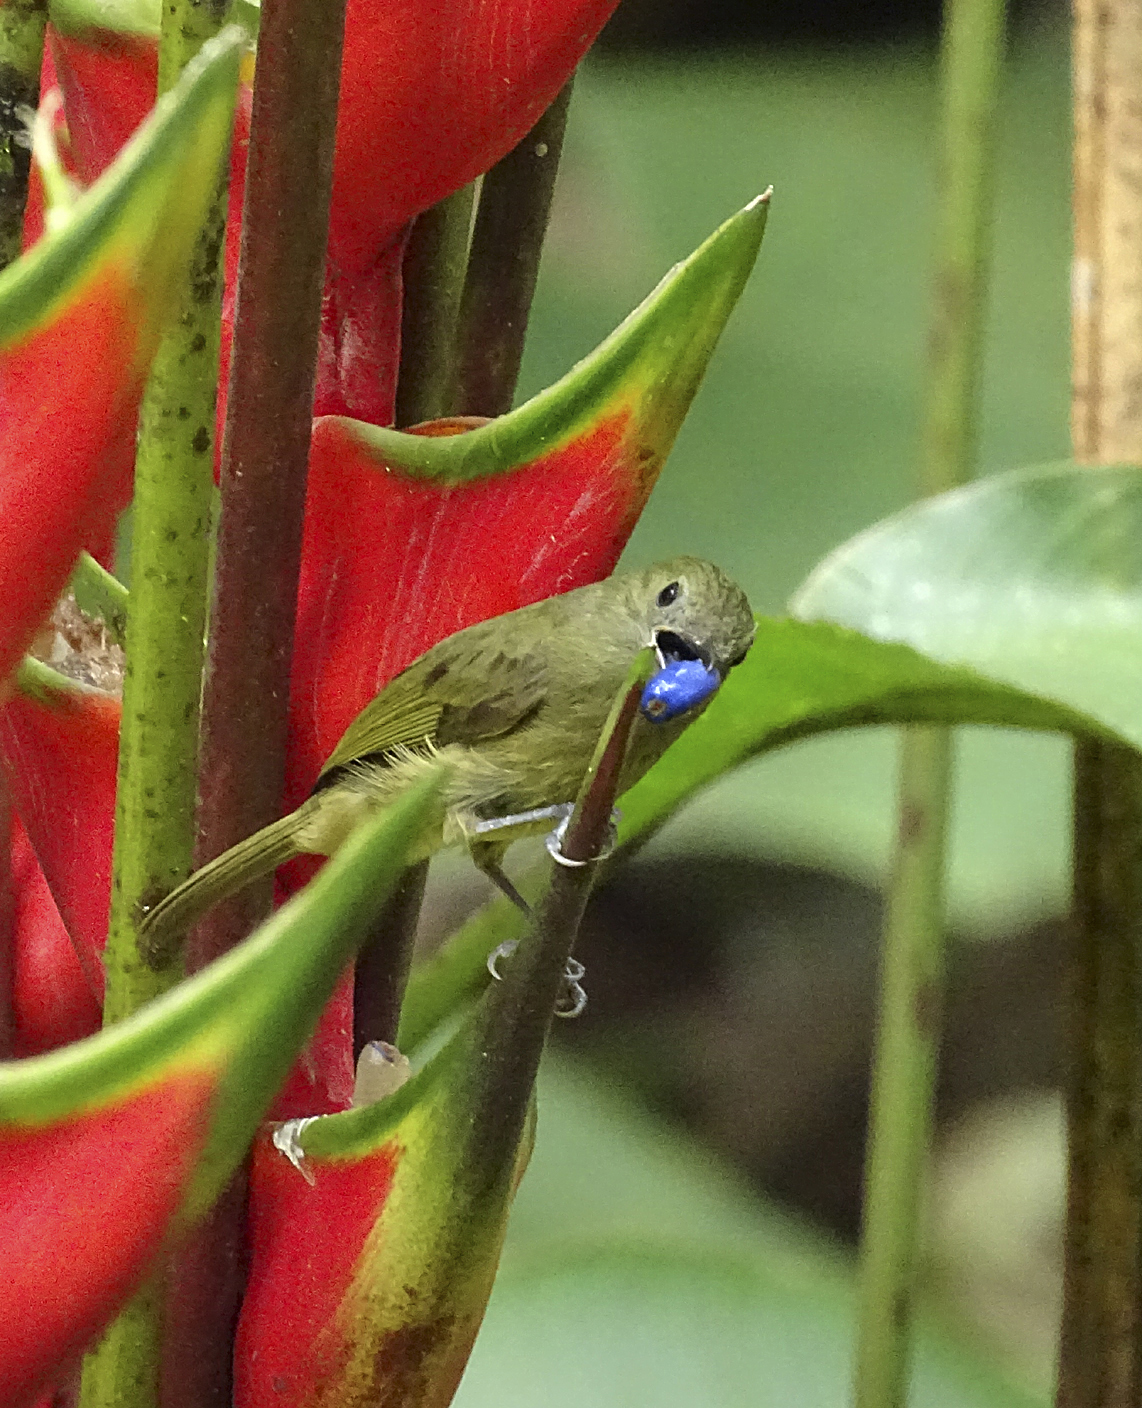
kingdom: Animalia
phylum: Chordata
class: Aves
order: Passeriformes
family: Tyrannidae
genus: Mionectes
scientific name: Mionectes oleagineus
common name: Ochre-bellied flycatcher
